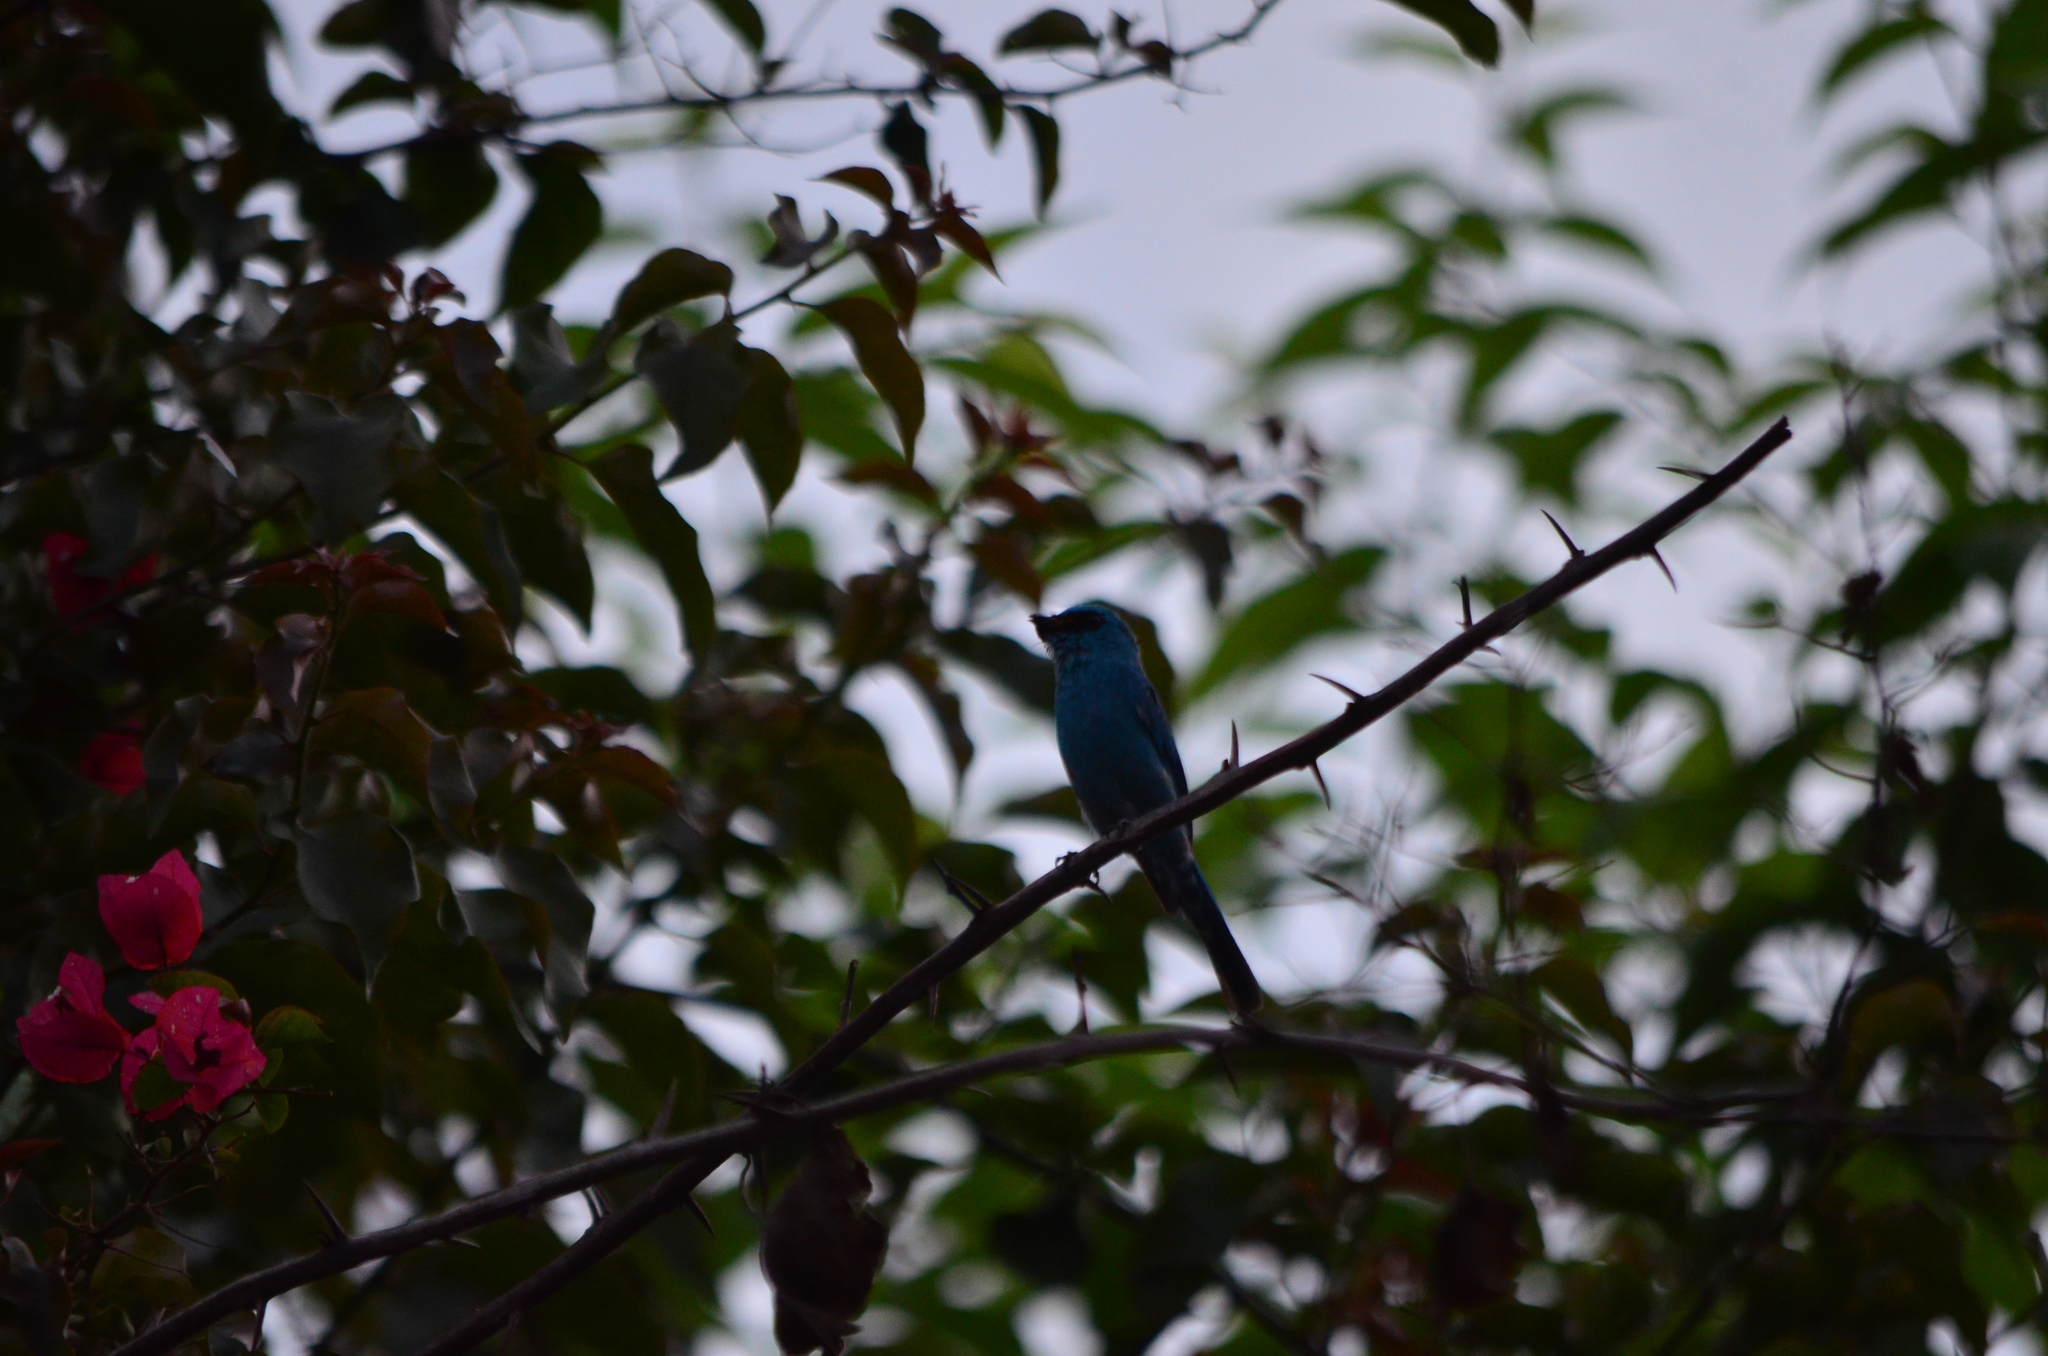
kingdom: Animalia
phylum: Chordata
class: Aves
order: Passeriformes
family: Muscicapidae
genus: Eumyias
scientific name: Eumyias thalassinus
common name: Verditer flycatcher
